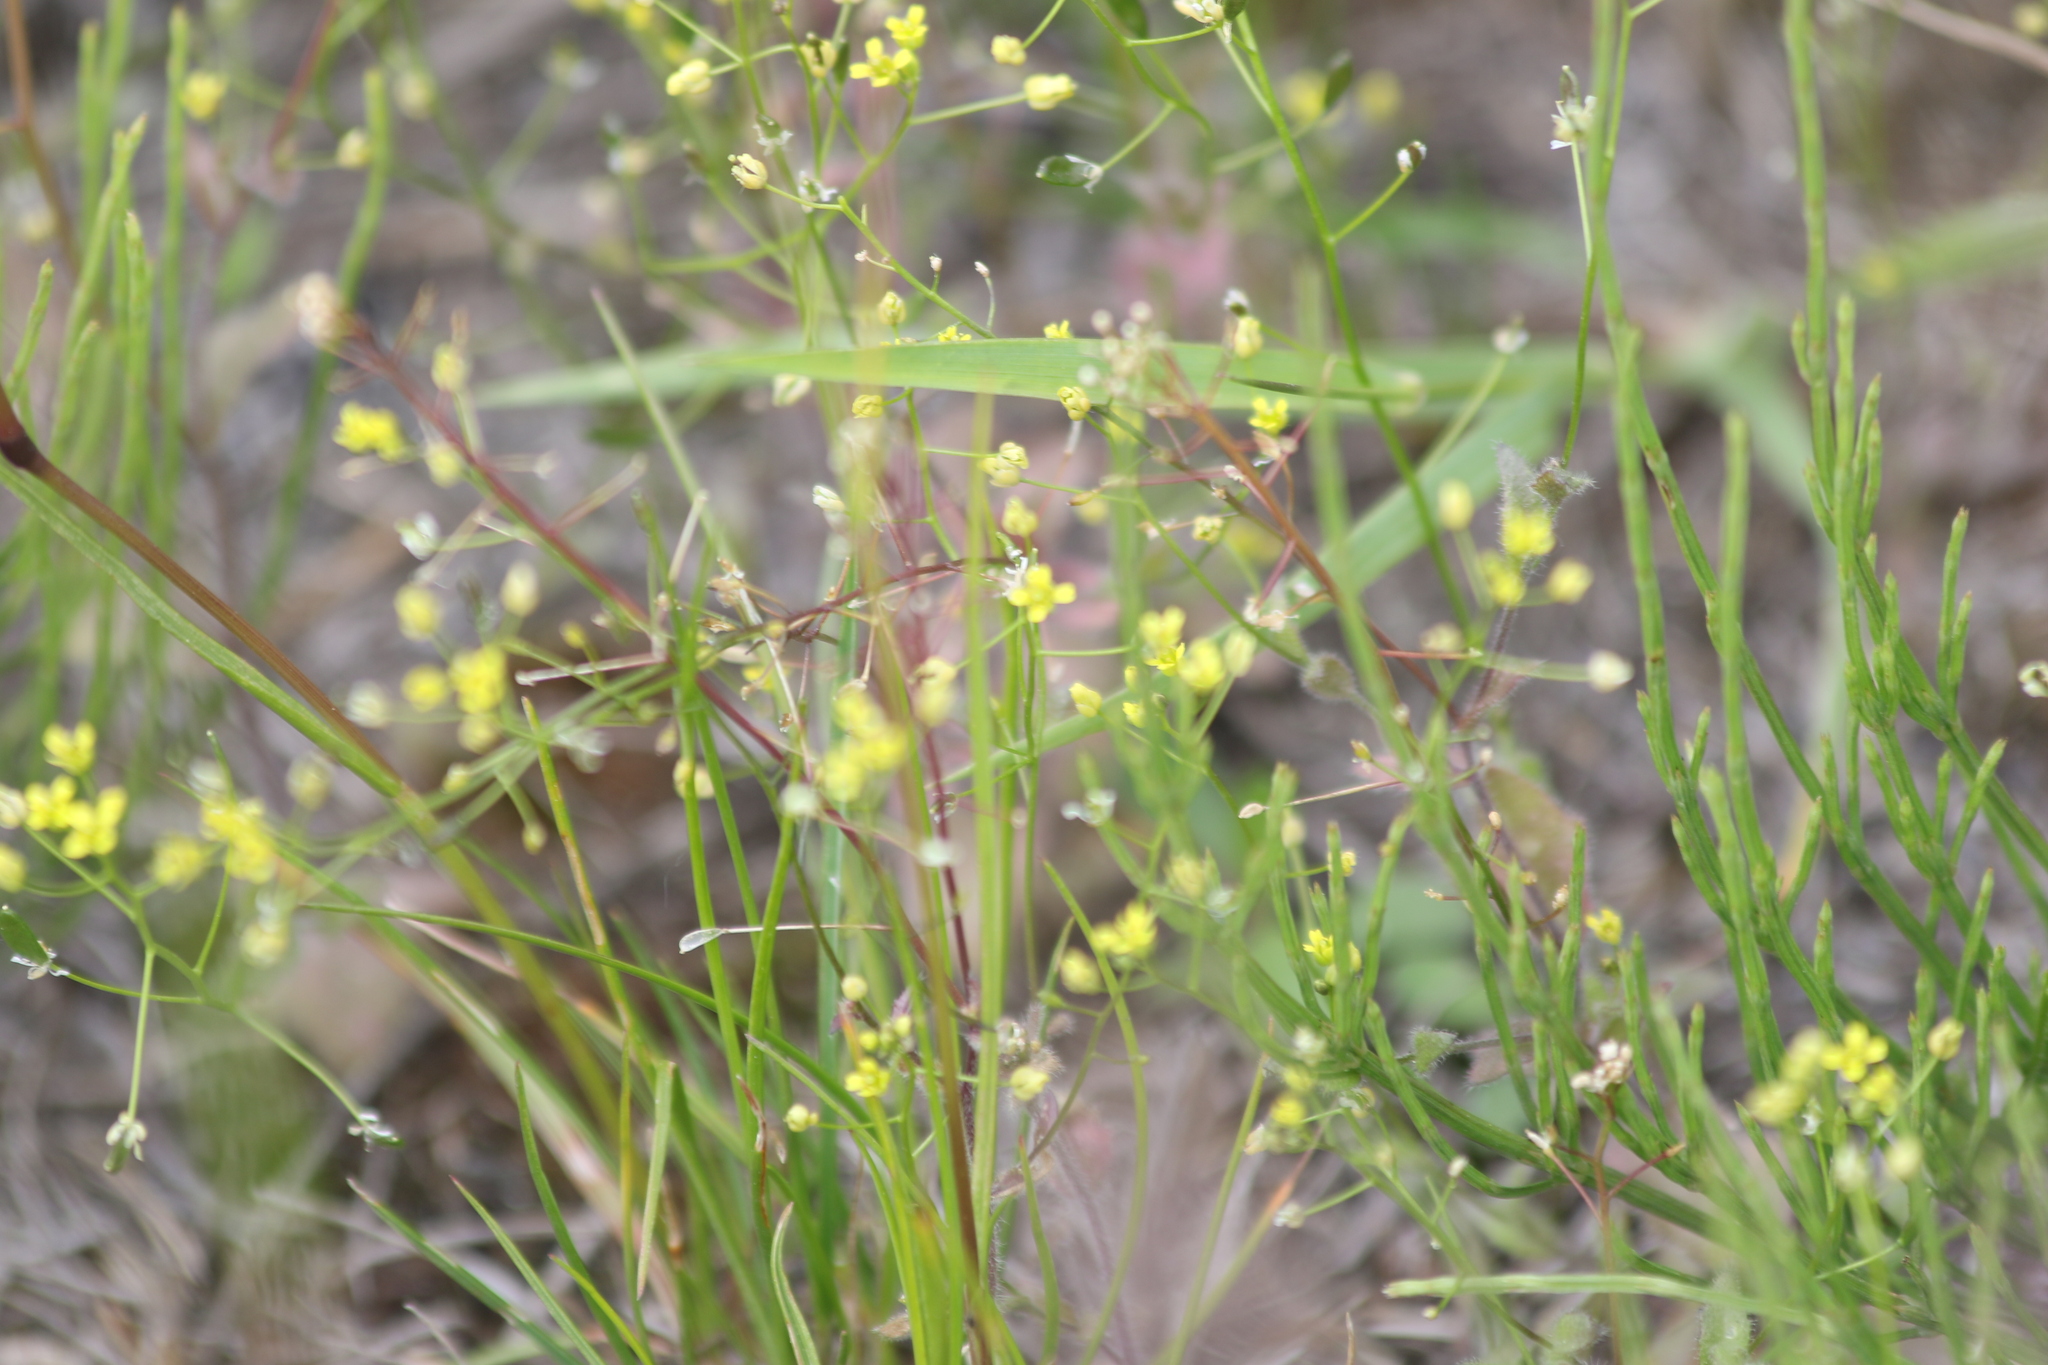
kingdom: Plantae
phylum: Tracheophyta
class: Magnoliopsida
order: Brassicales
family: Brassicaceae
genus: Draba
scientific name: Draba nemorosa
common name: Wood whitlow-grass
